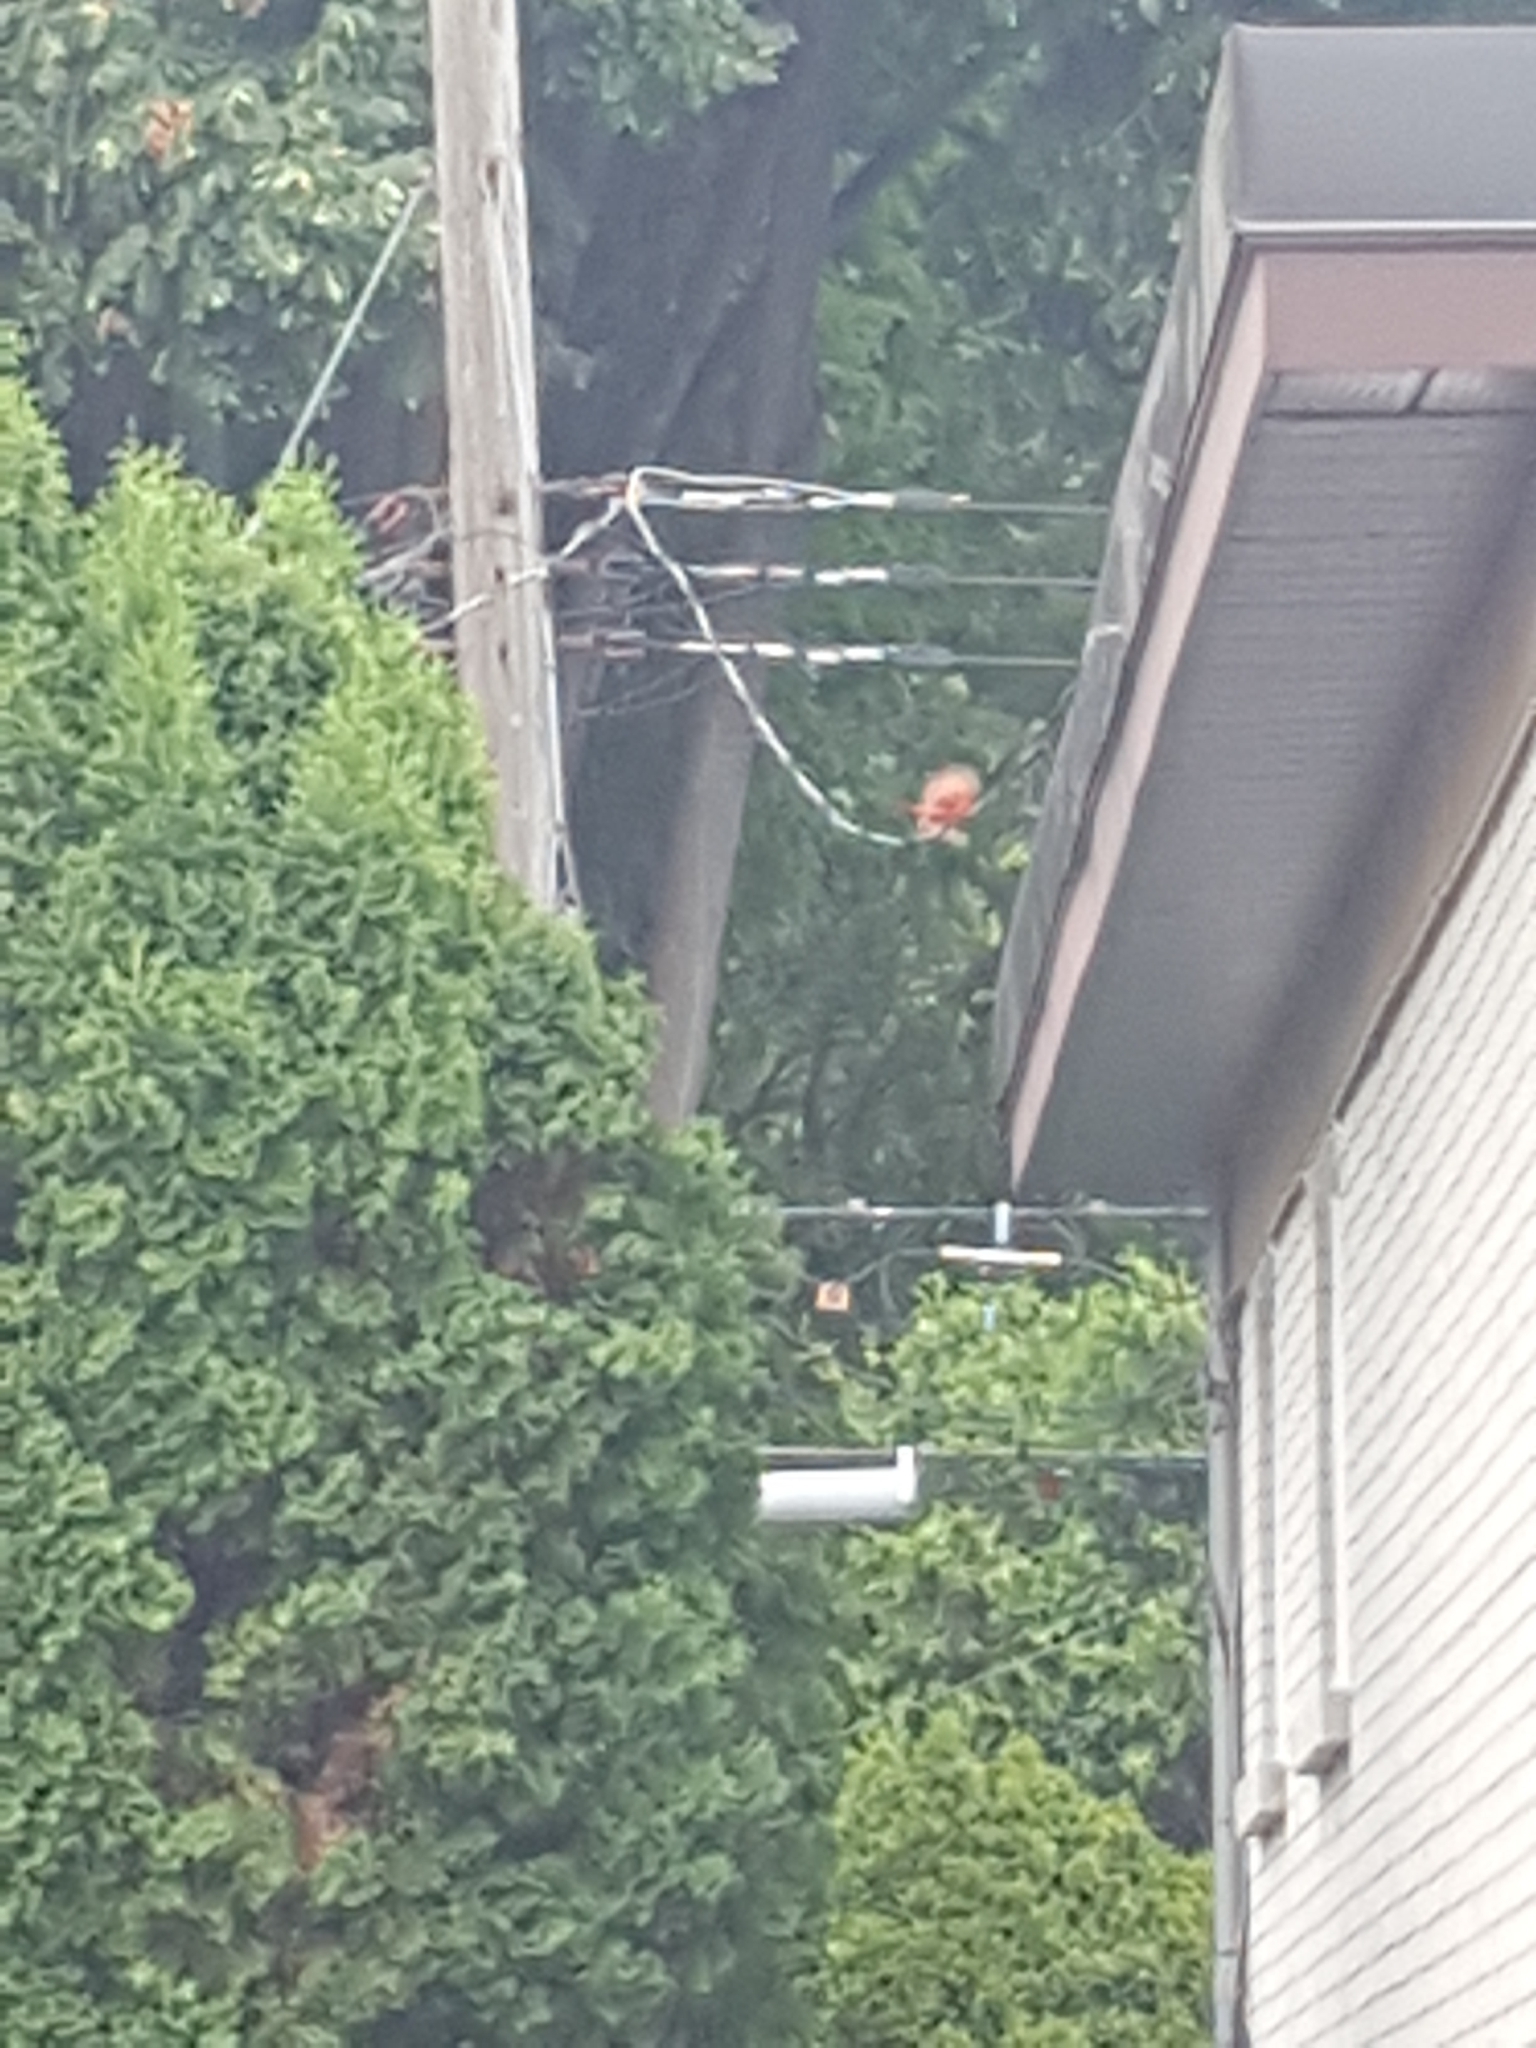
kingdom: Animalia
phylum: Chordata
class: Aves
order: Passeriformes
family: Cardinalidae
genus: Cardinalis
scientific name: Cardinalis cardinalis
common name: Northern cardinal
